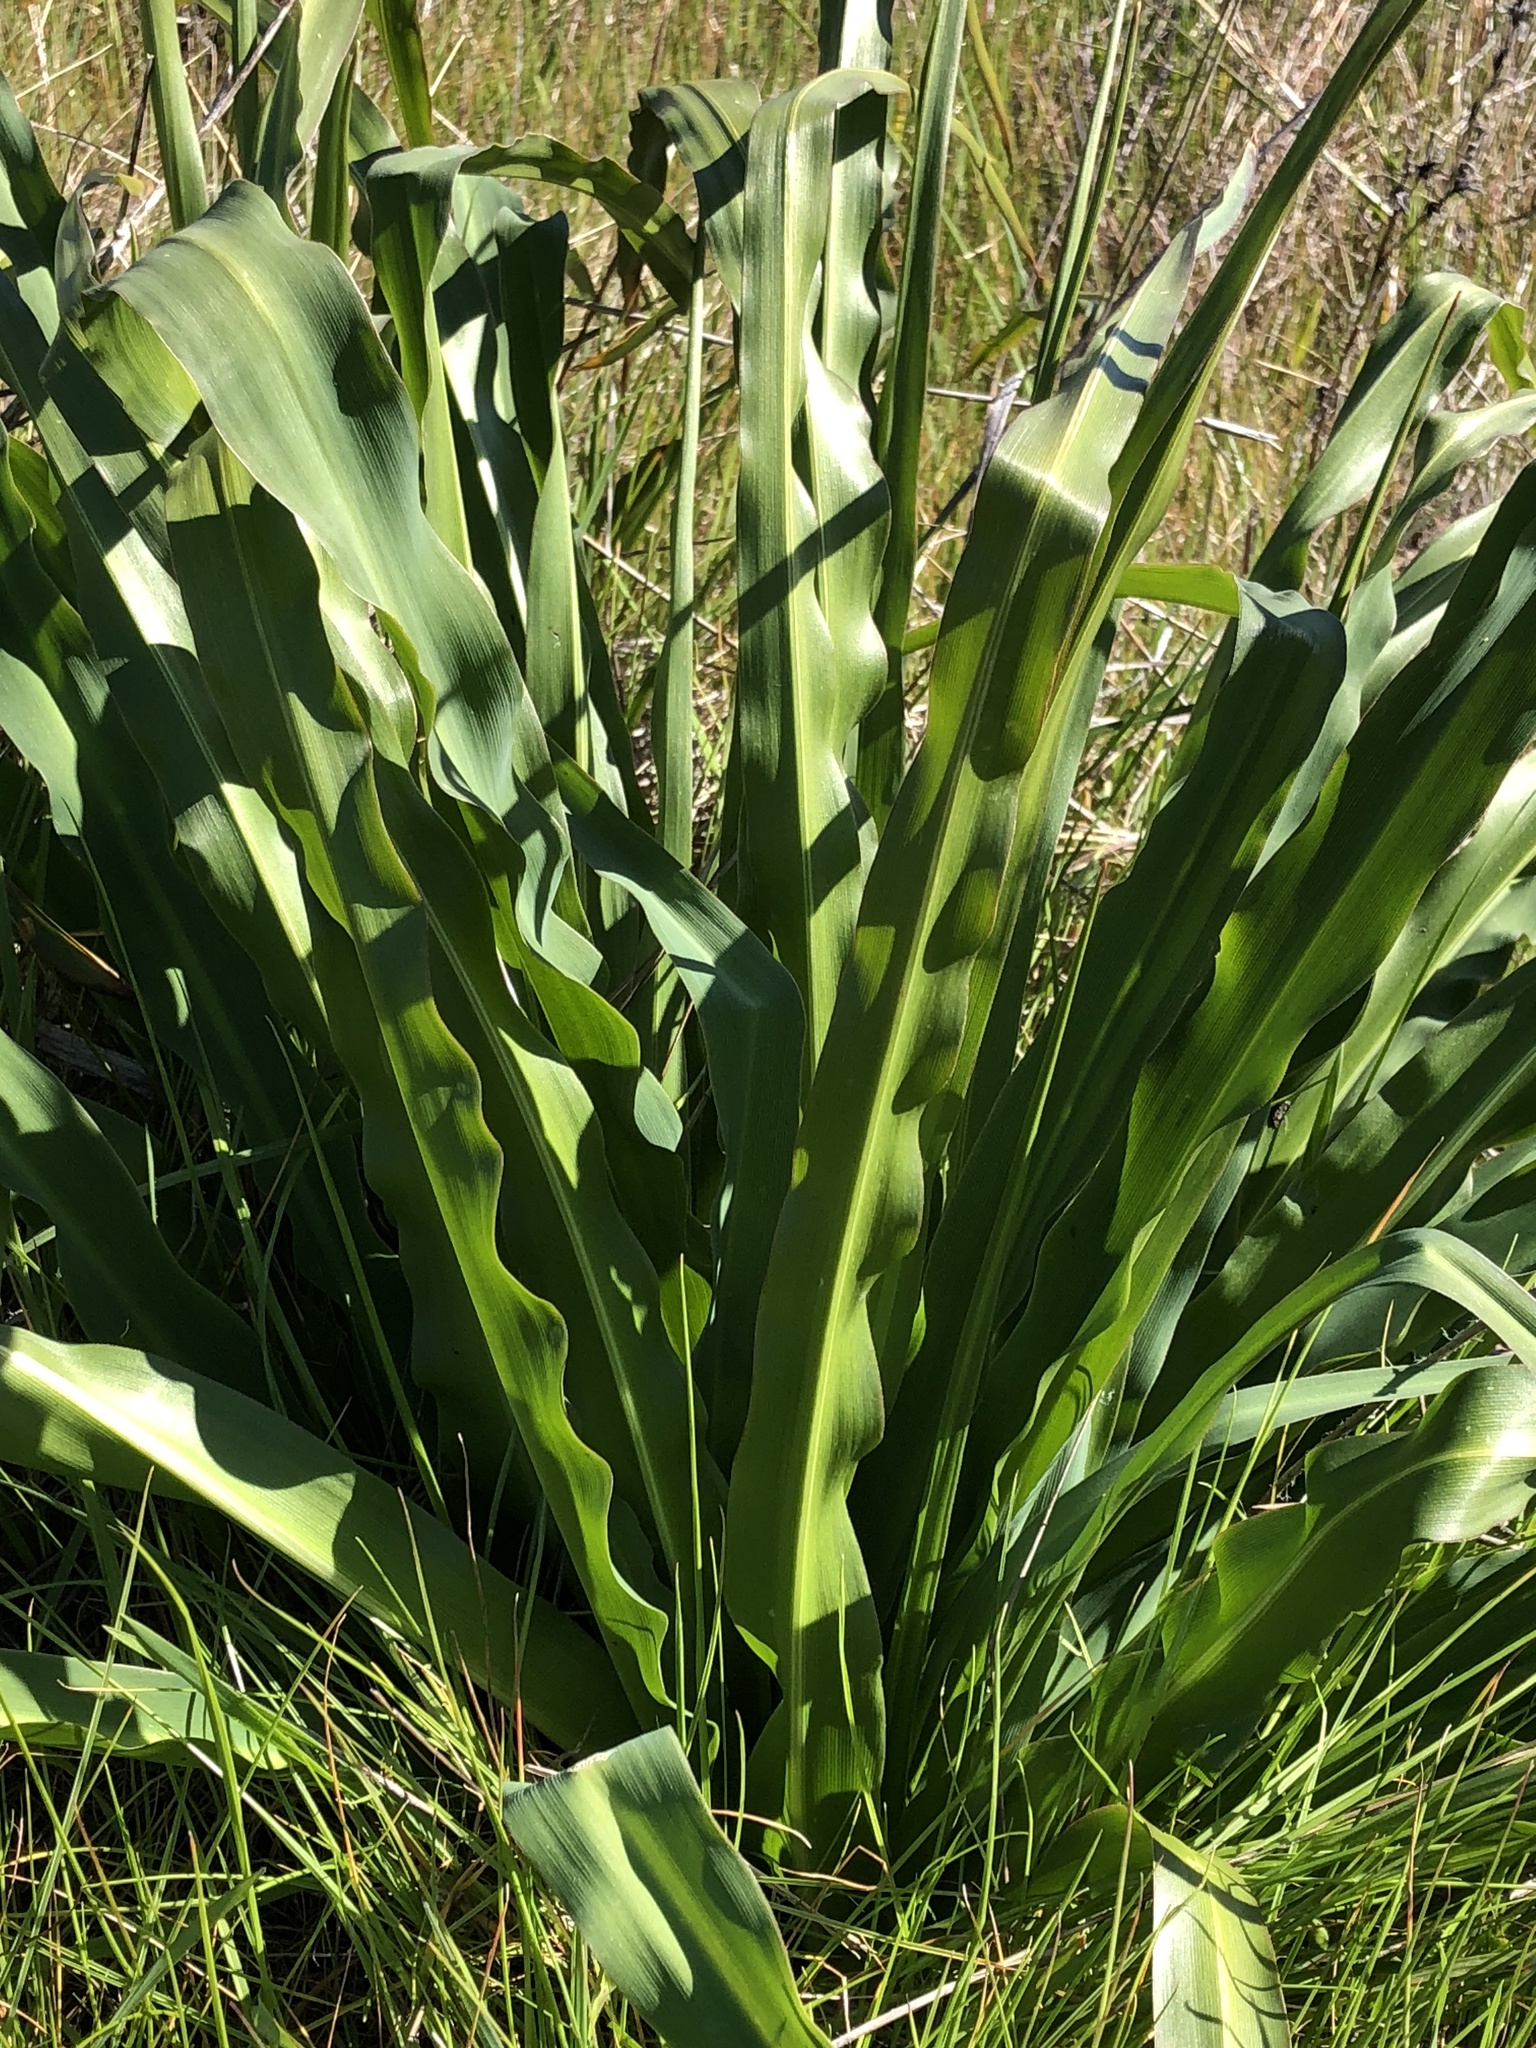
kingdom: Plantae
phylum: Tracheophyta
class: Liliopsida
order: Asparagales
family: Asparagaceae
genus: Chlorogalum
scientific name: Chlorogalum pomeridianum
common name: Amole
